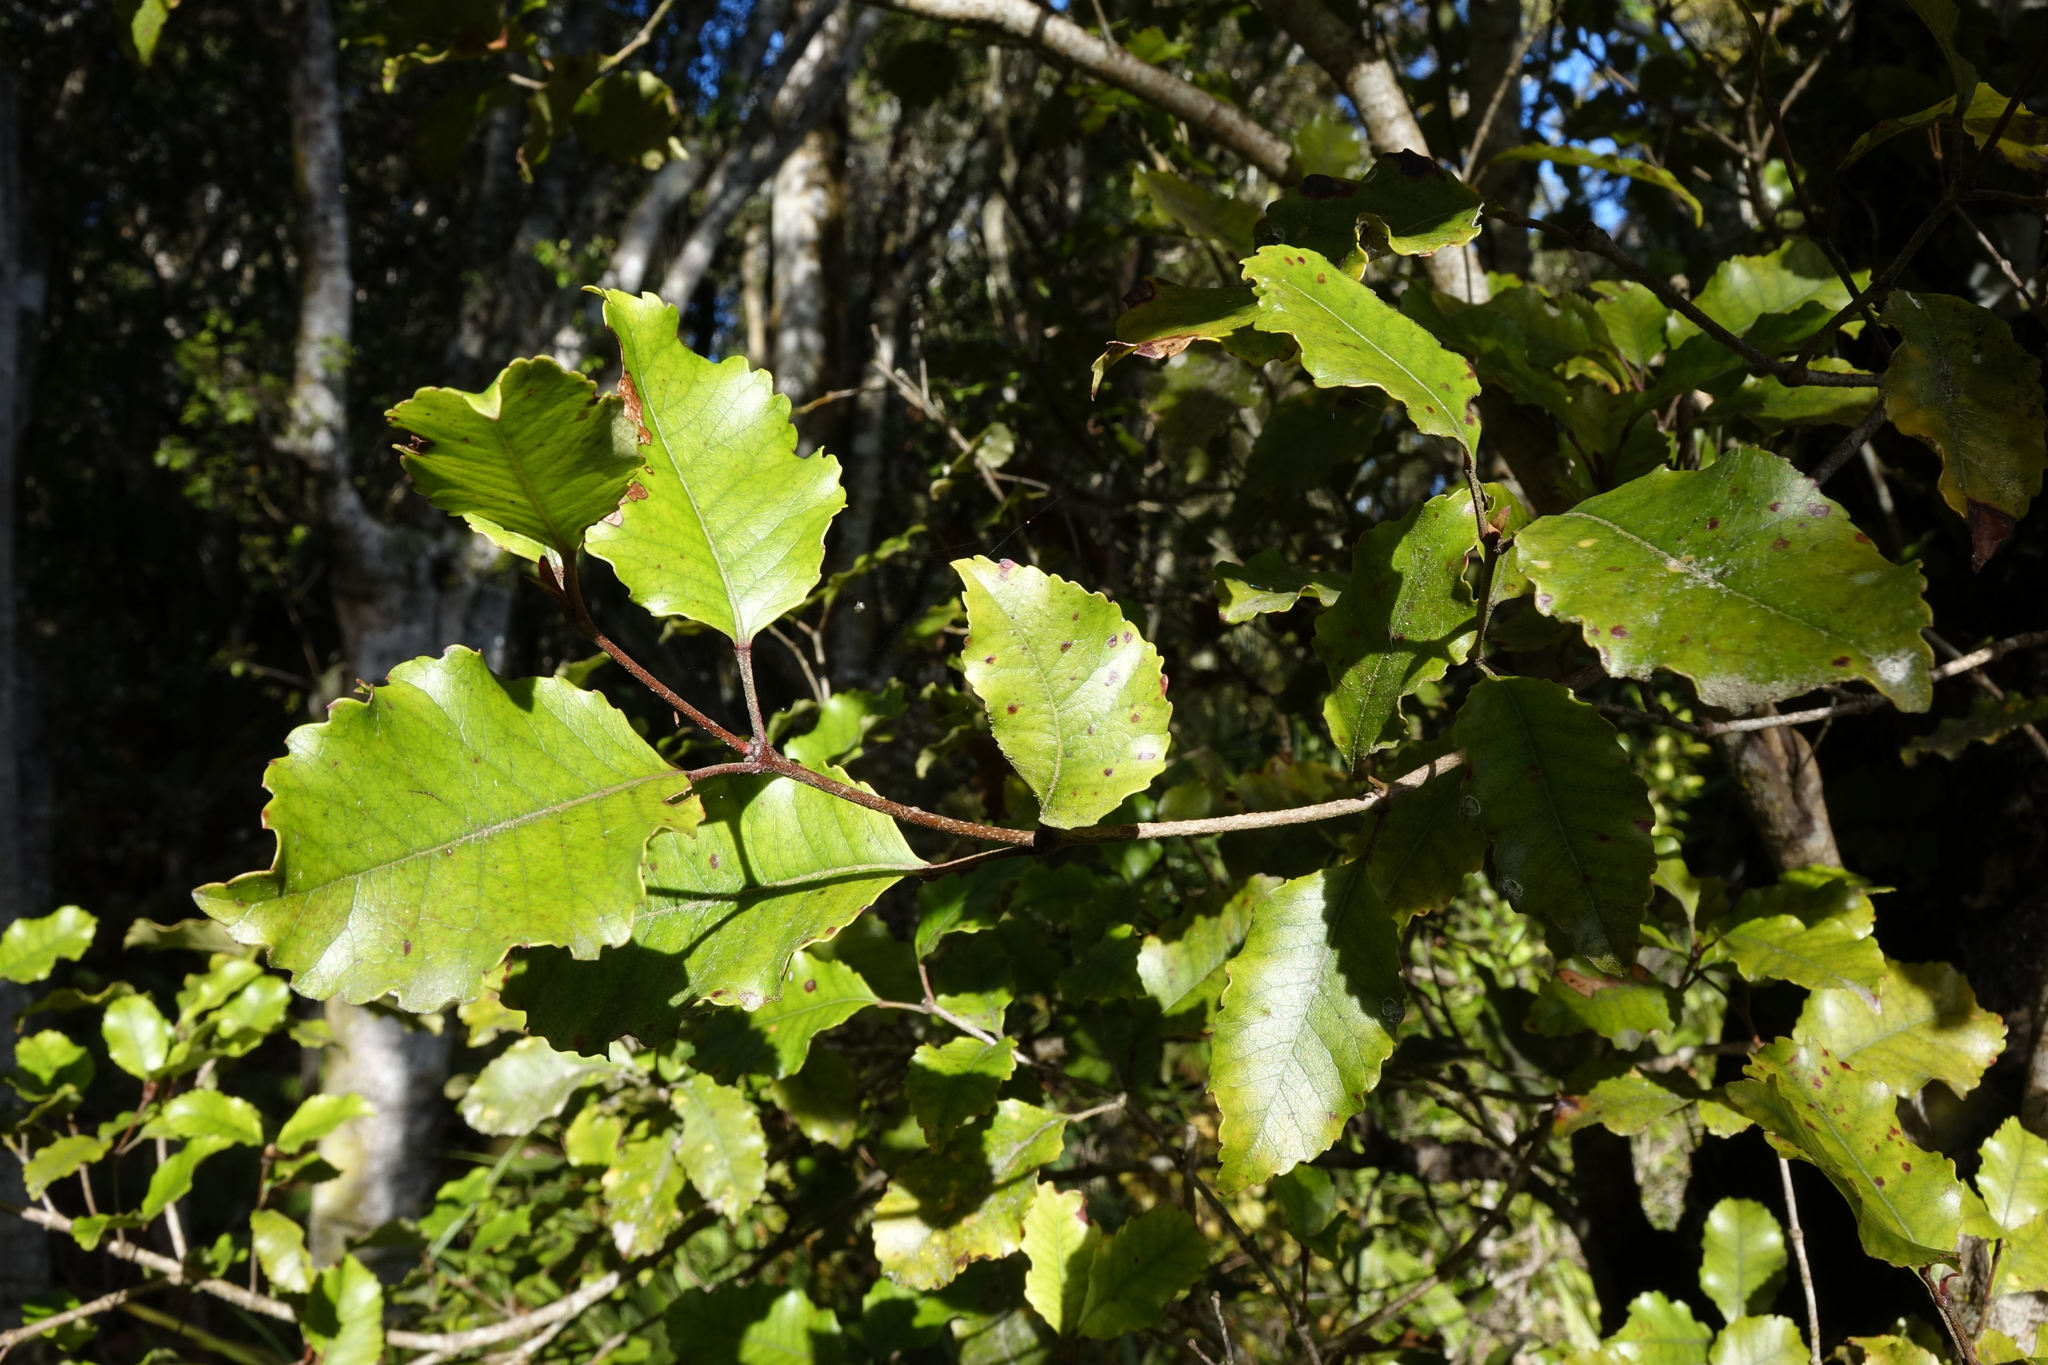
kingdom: Plantae
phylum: Tracheophyta
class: Magnoliopsida
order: Oxalidales
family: Cunoniaceae
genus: Pterophylla
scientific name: Pterophylla racemosa
